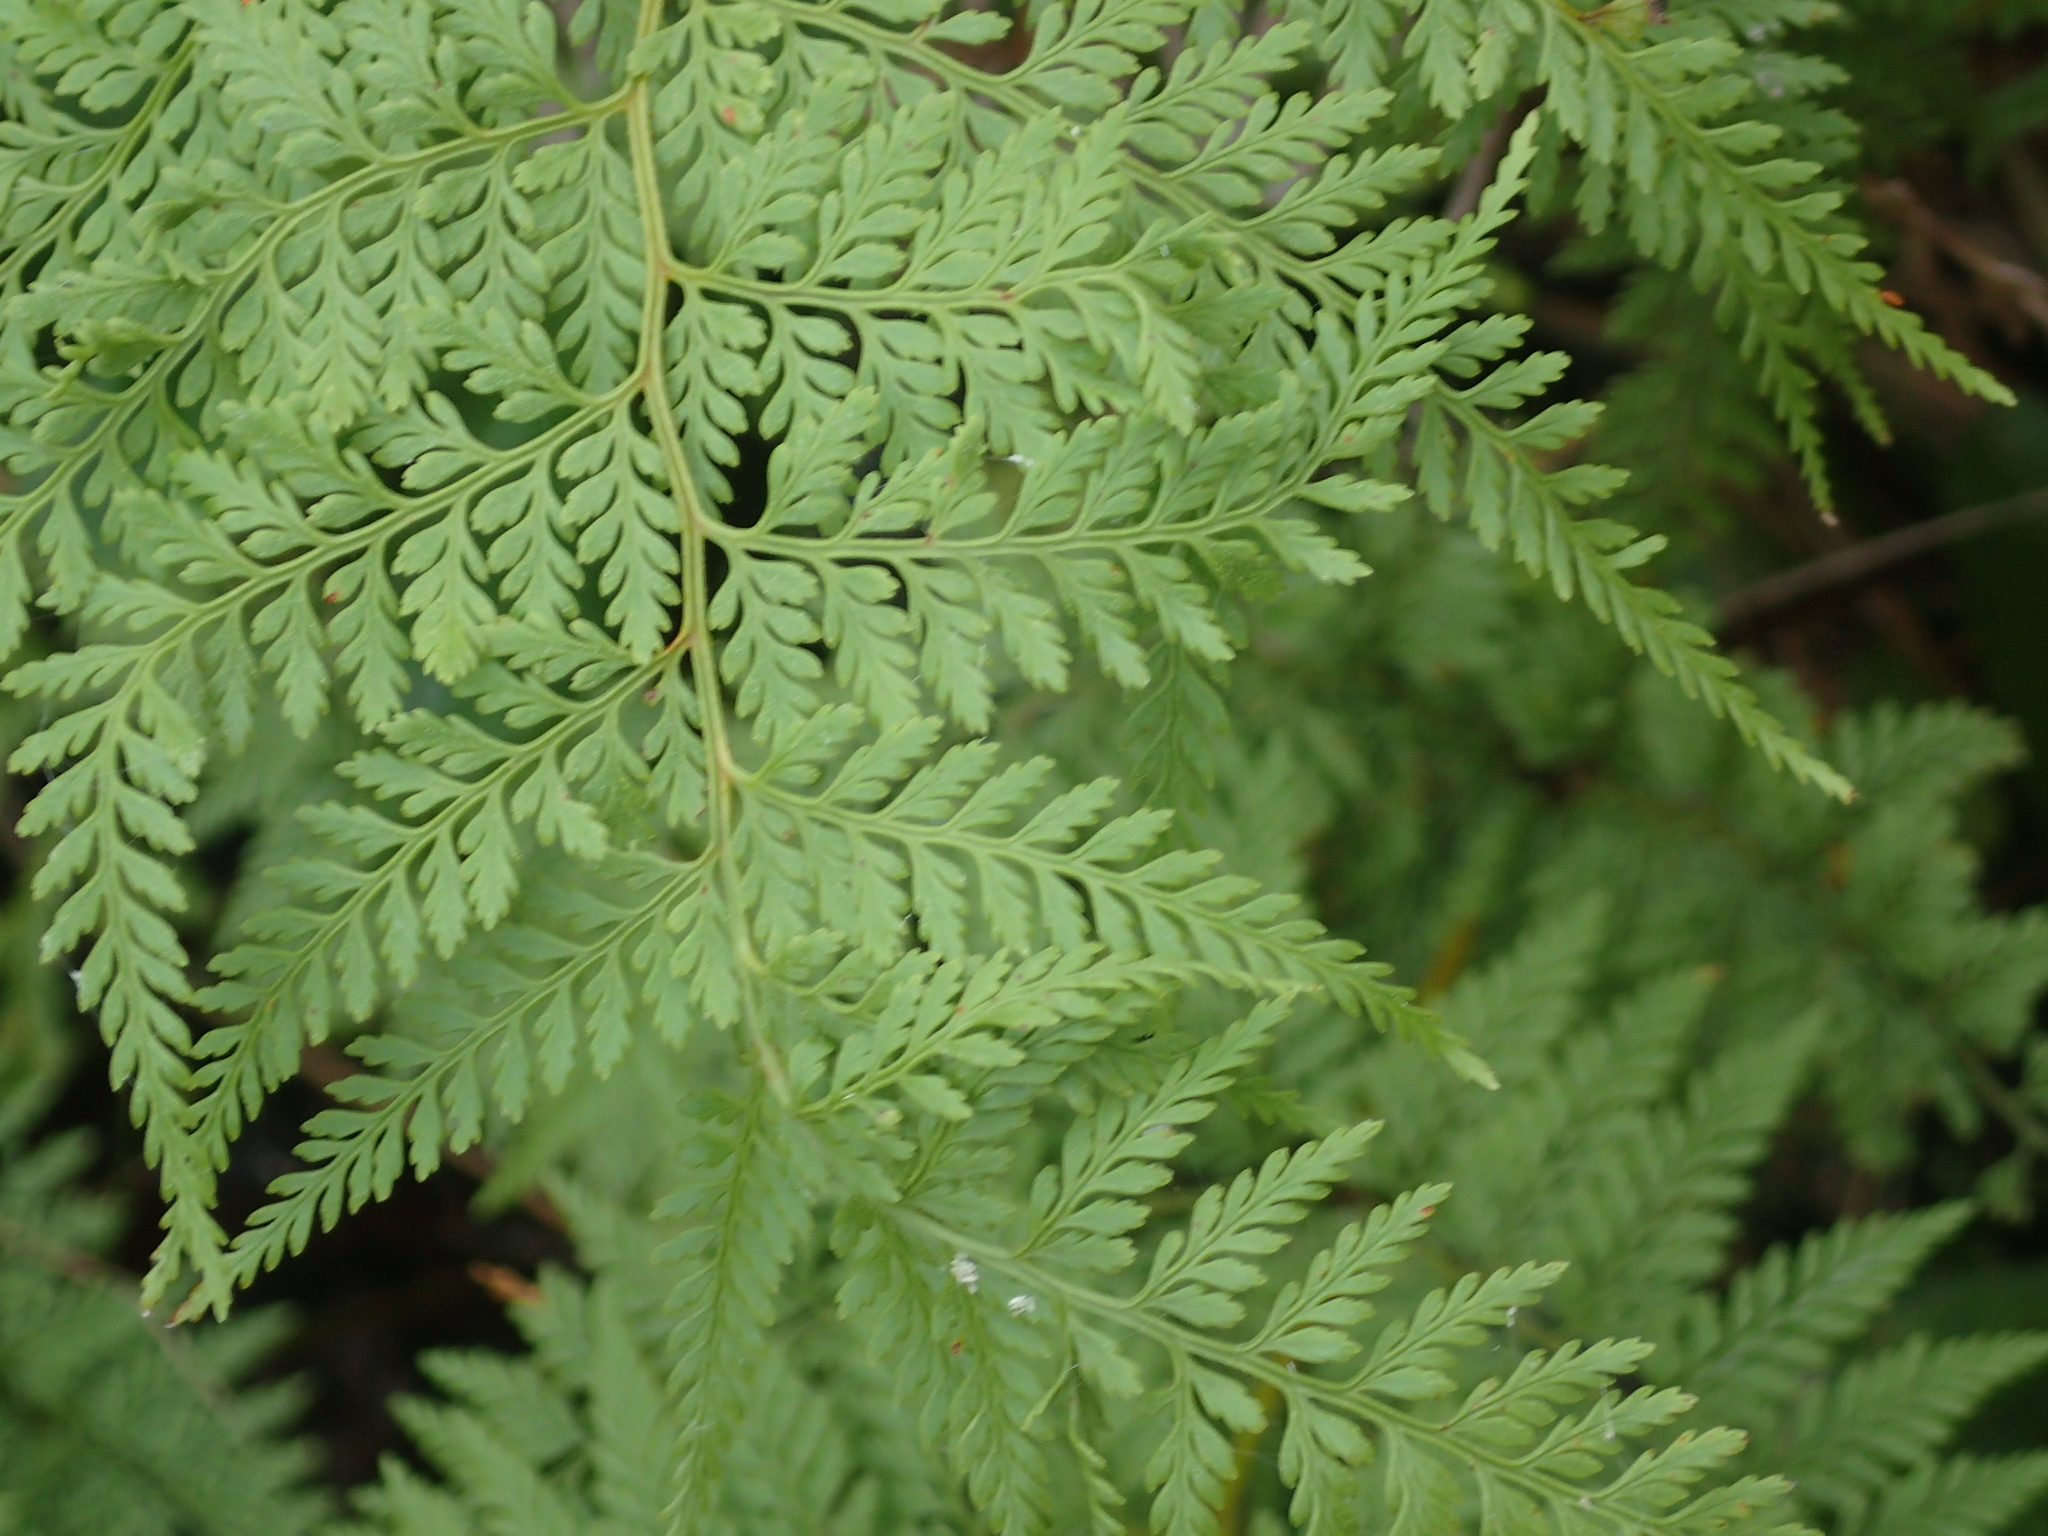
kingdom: Plantae
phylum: Tracheophyta
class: Polypodiopsida
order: Polypodiales
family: Dennstaedtiaceae
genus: Paesia
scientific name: Paesia scaberula
